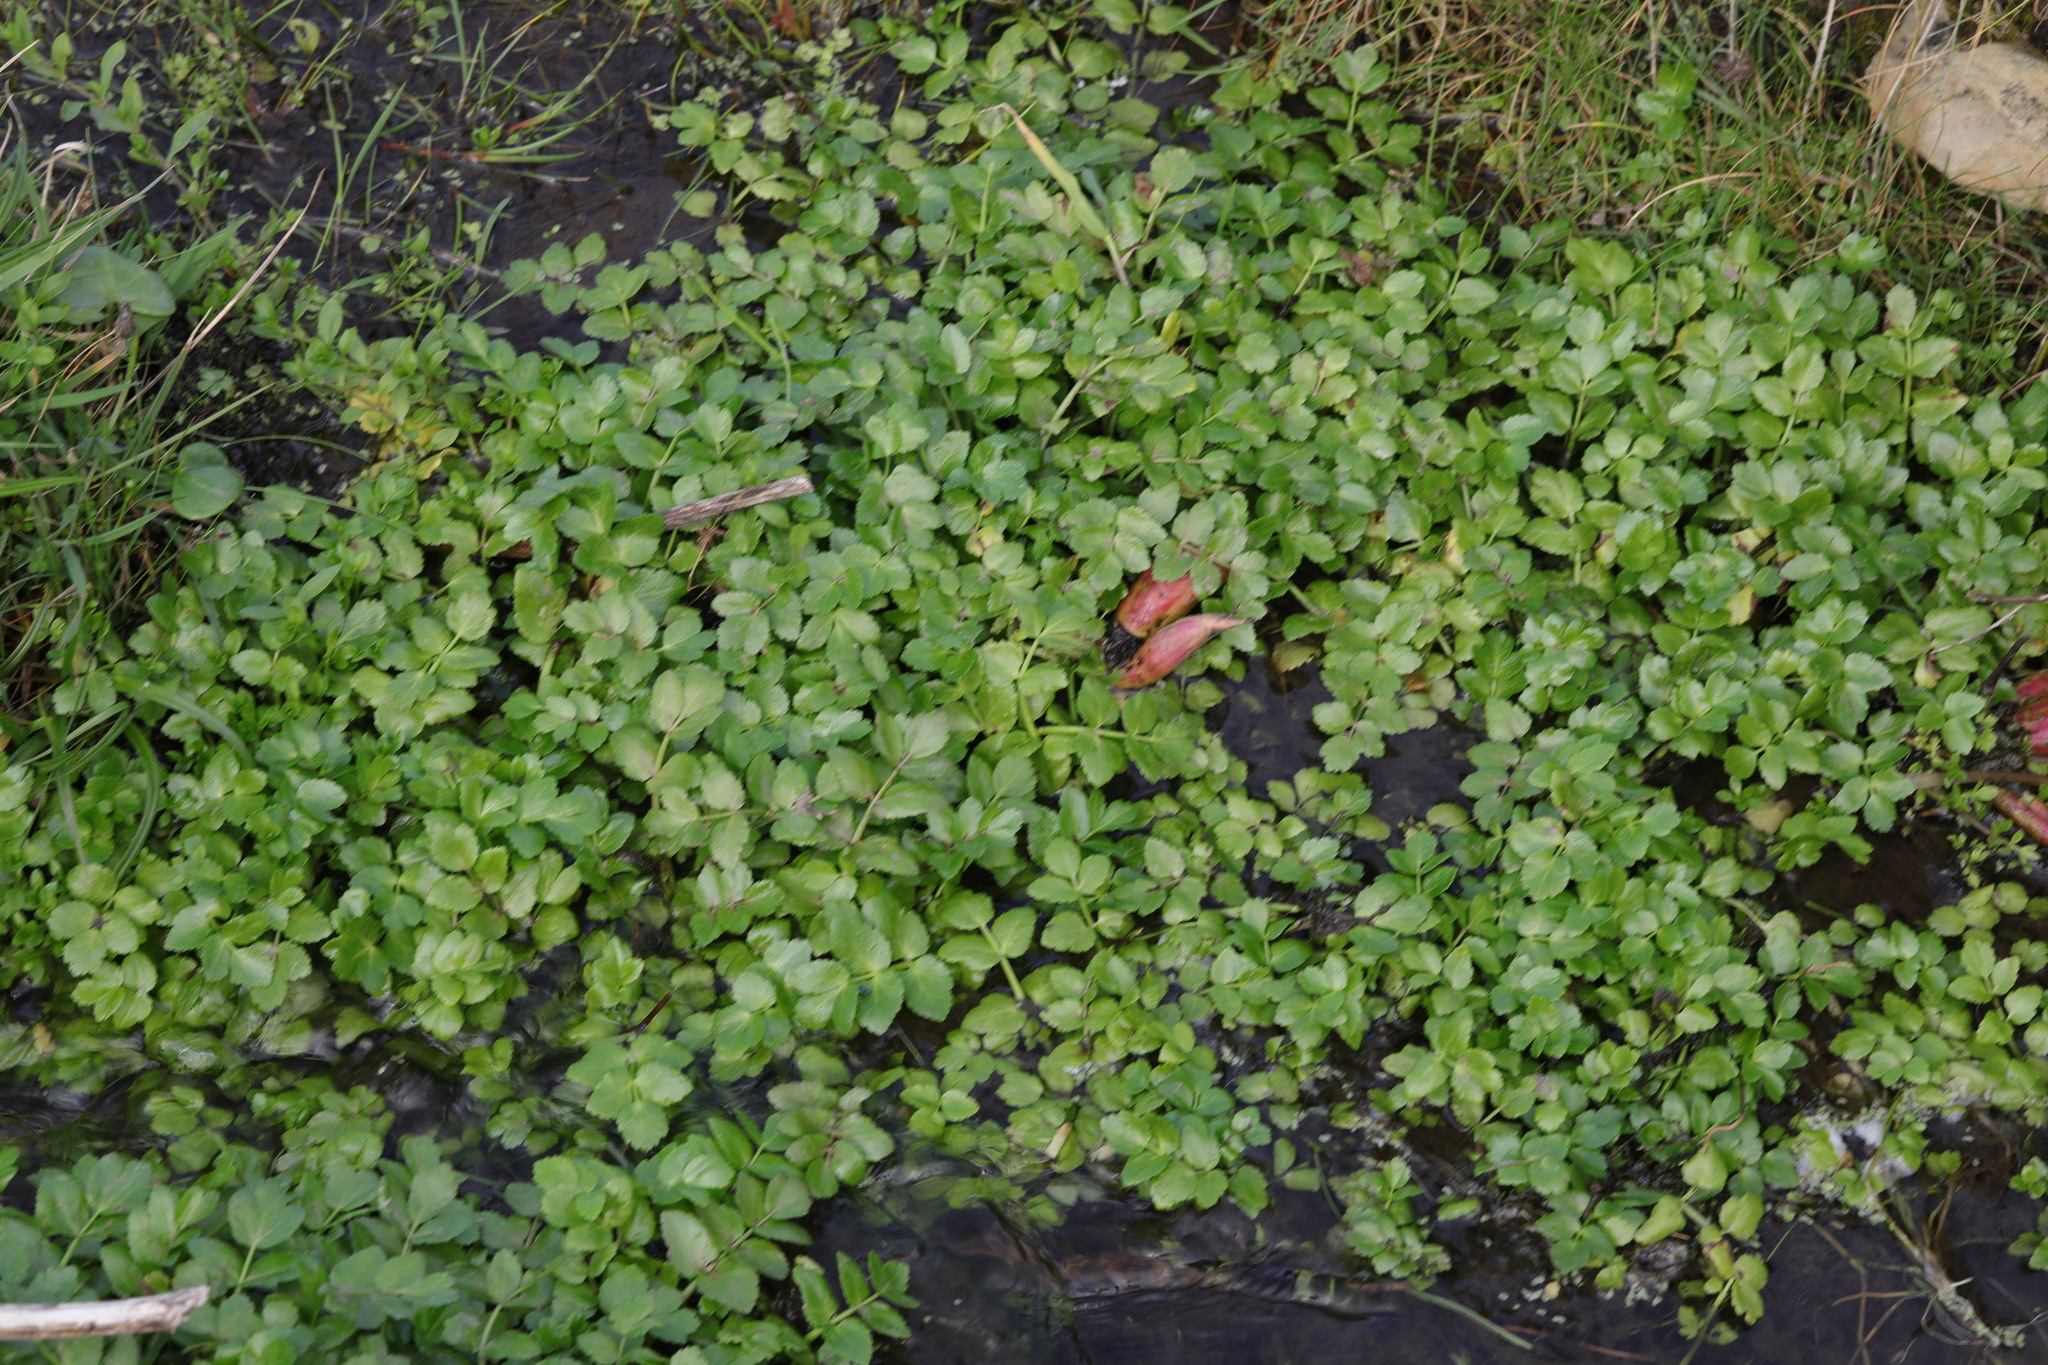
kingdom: Plantae
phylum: Tracheophyta
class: Magnoliopsida
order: Apiales
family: Apiaceae
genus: Helosciadium
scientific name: Helosciadium nodiflorum
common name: Fool's-watercress
